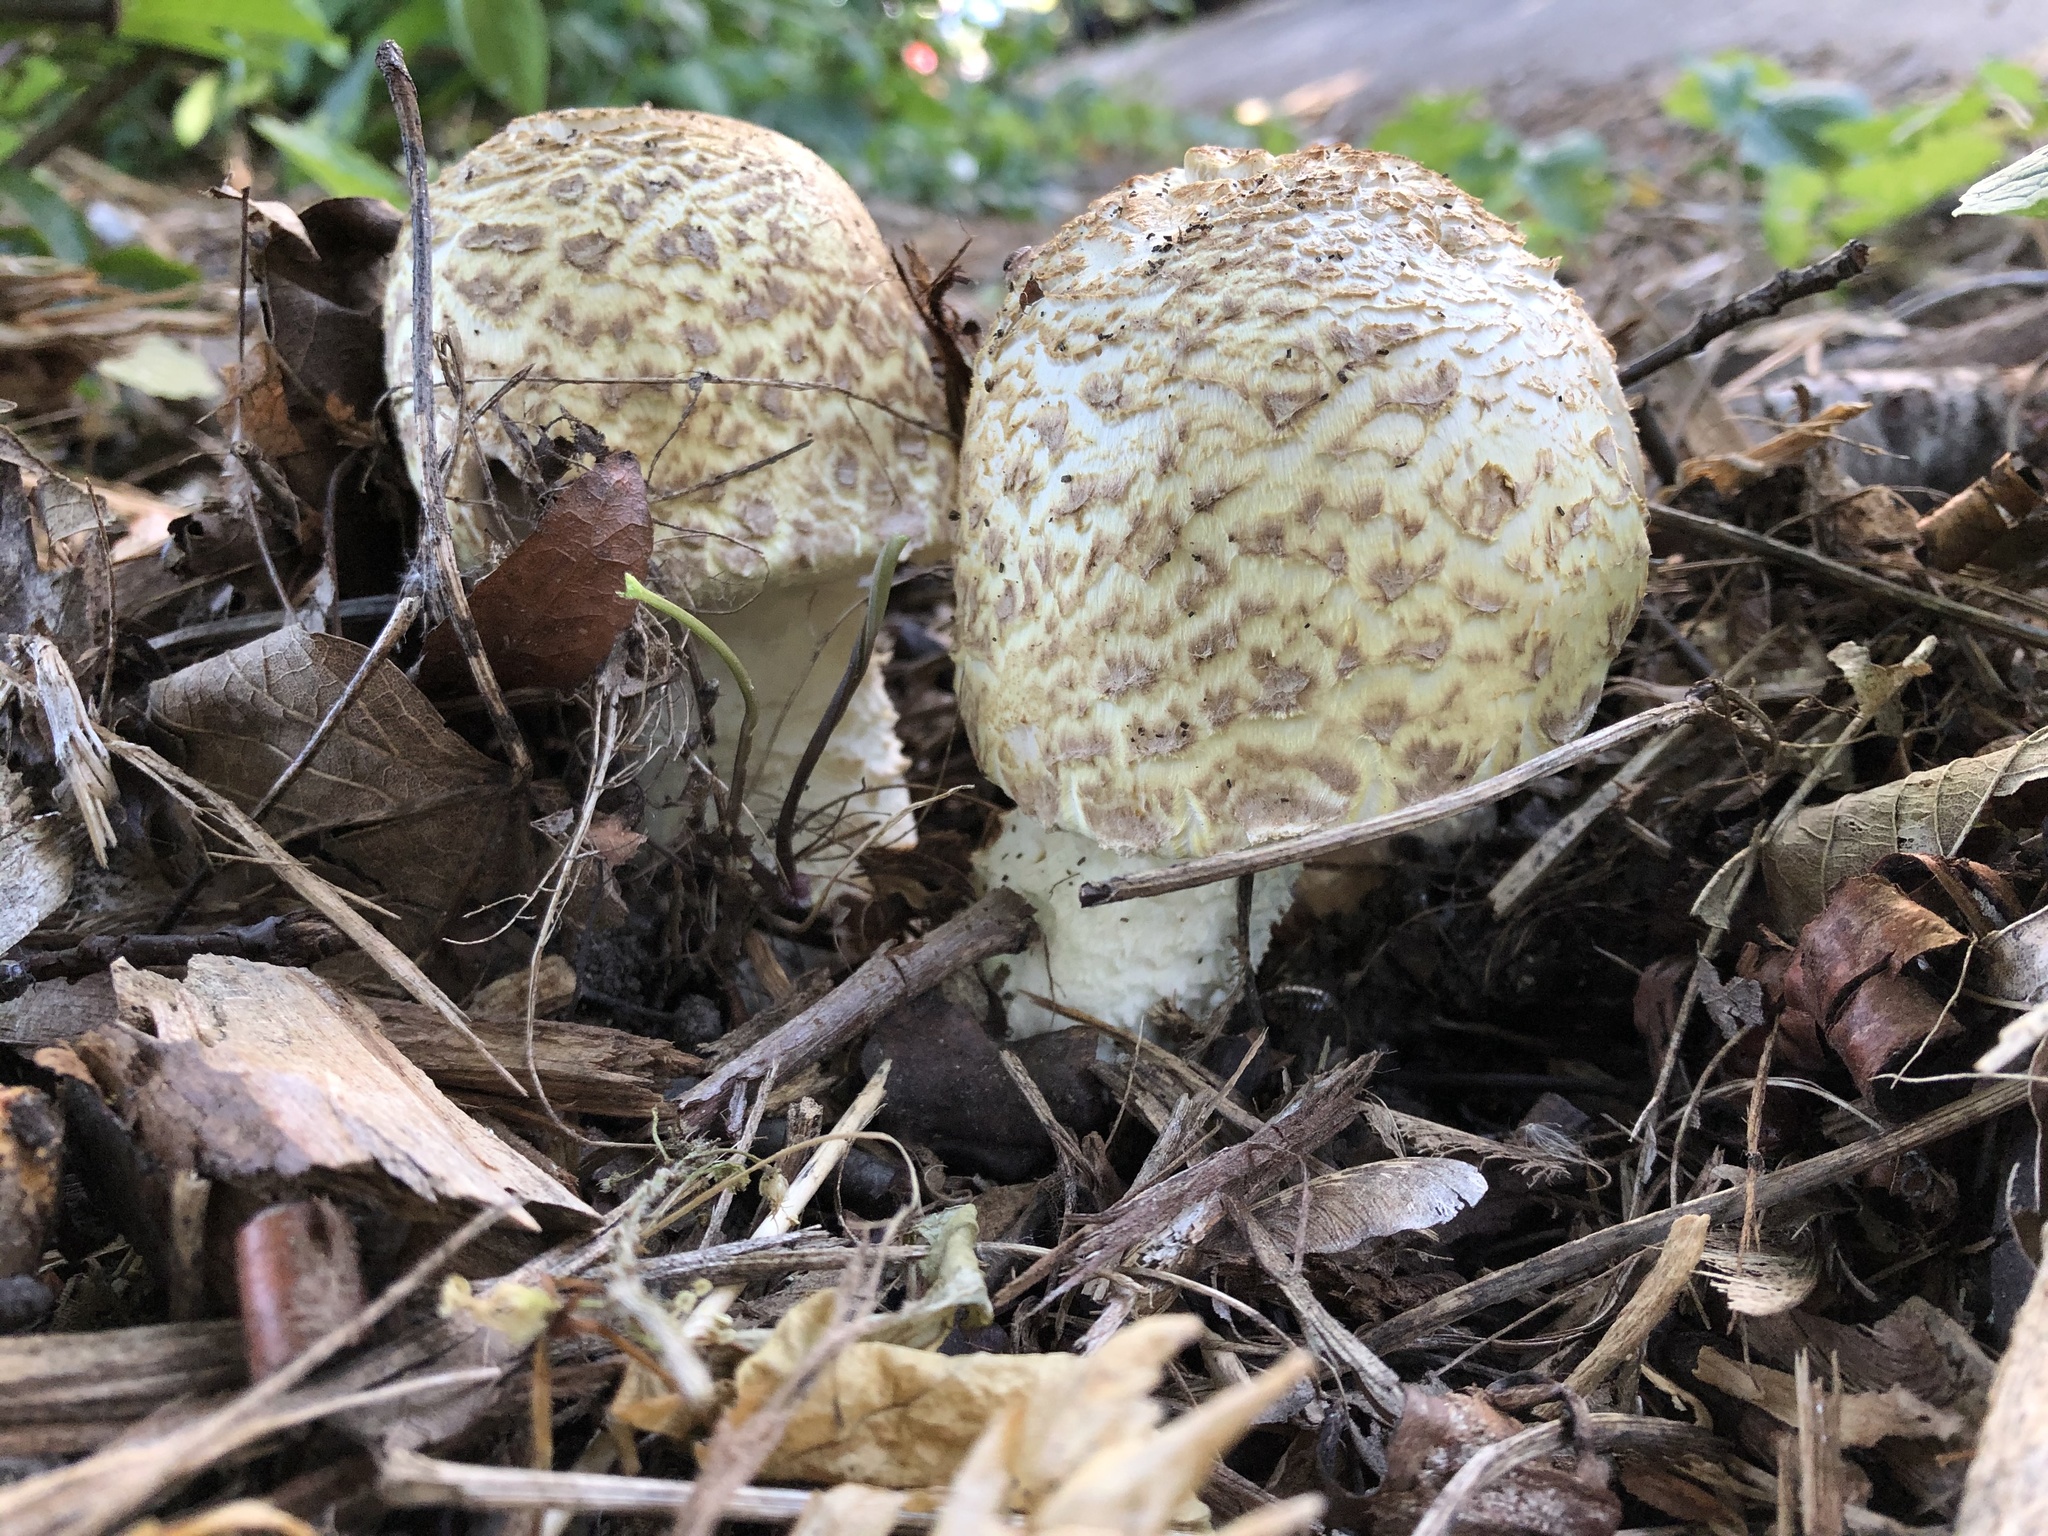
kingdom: Fungi
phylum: Basidiomycota
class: Agaricomycetes
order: Agaricales
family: Agaricaceae
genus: Agaricus
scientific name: Agaricus augustus
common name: Prince
